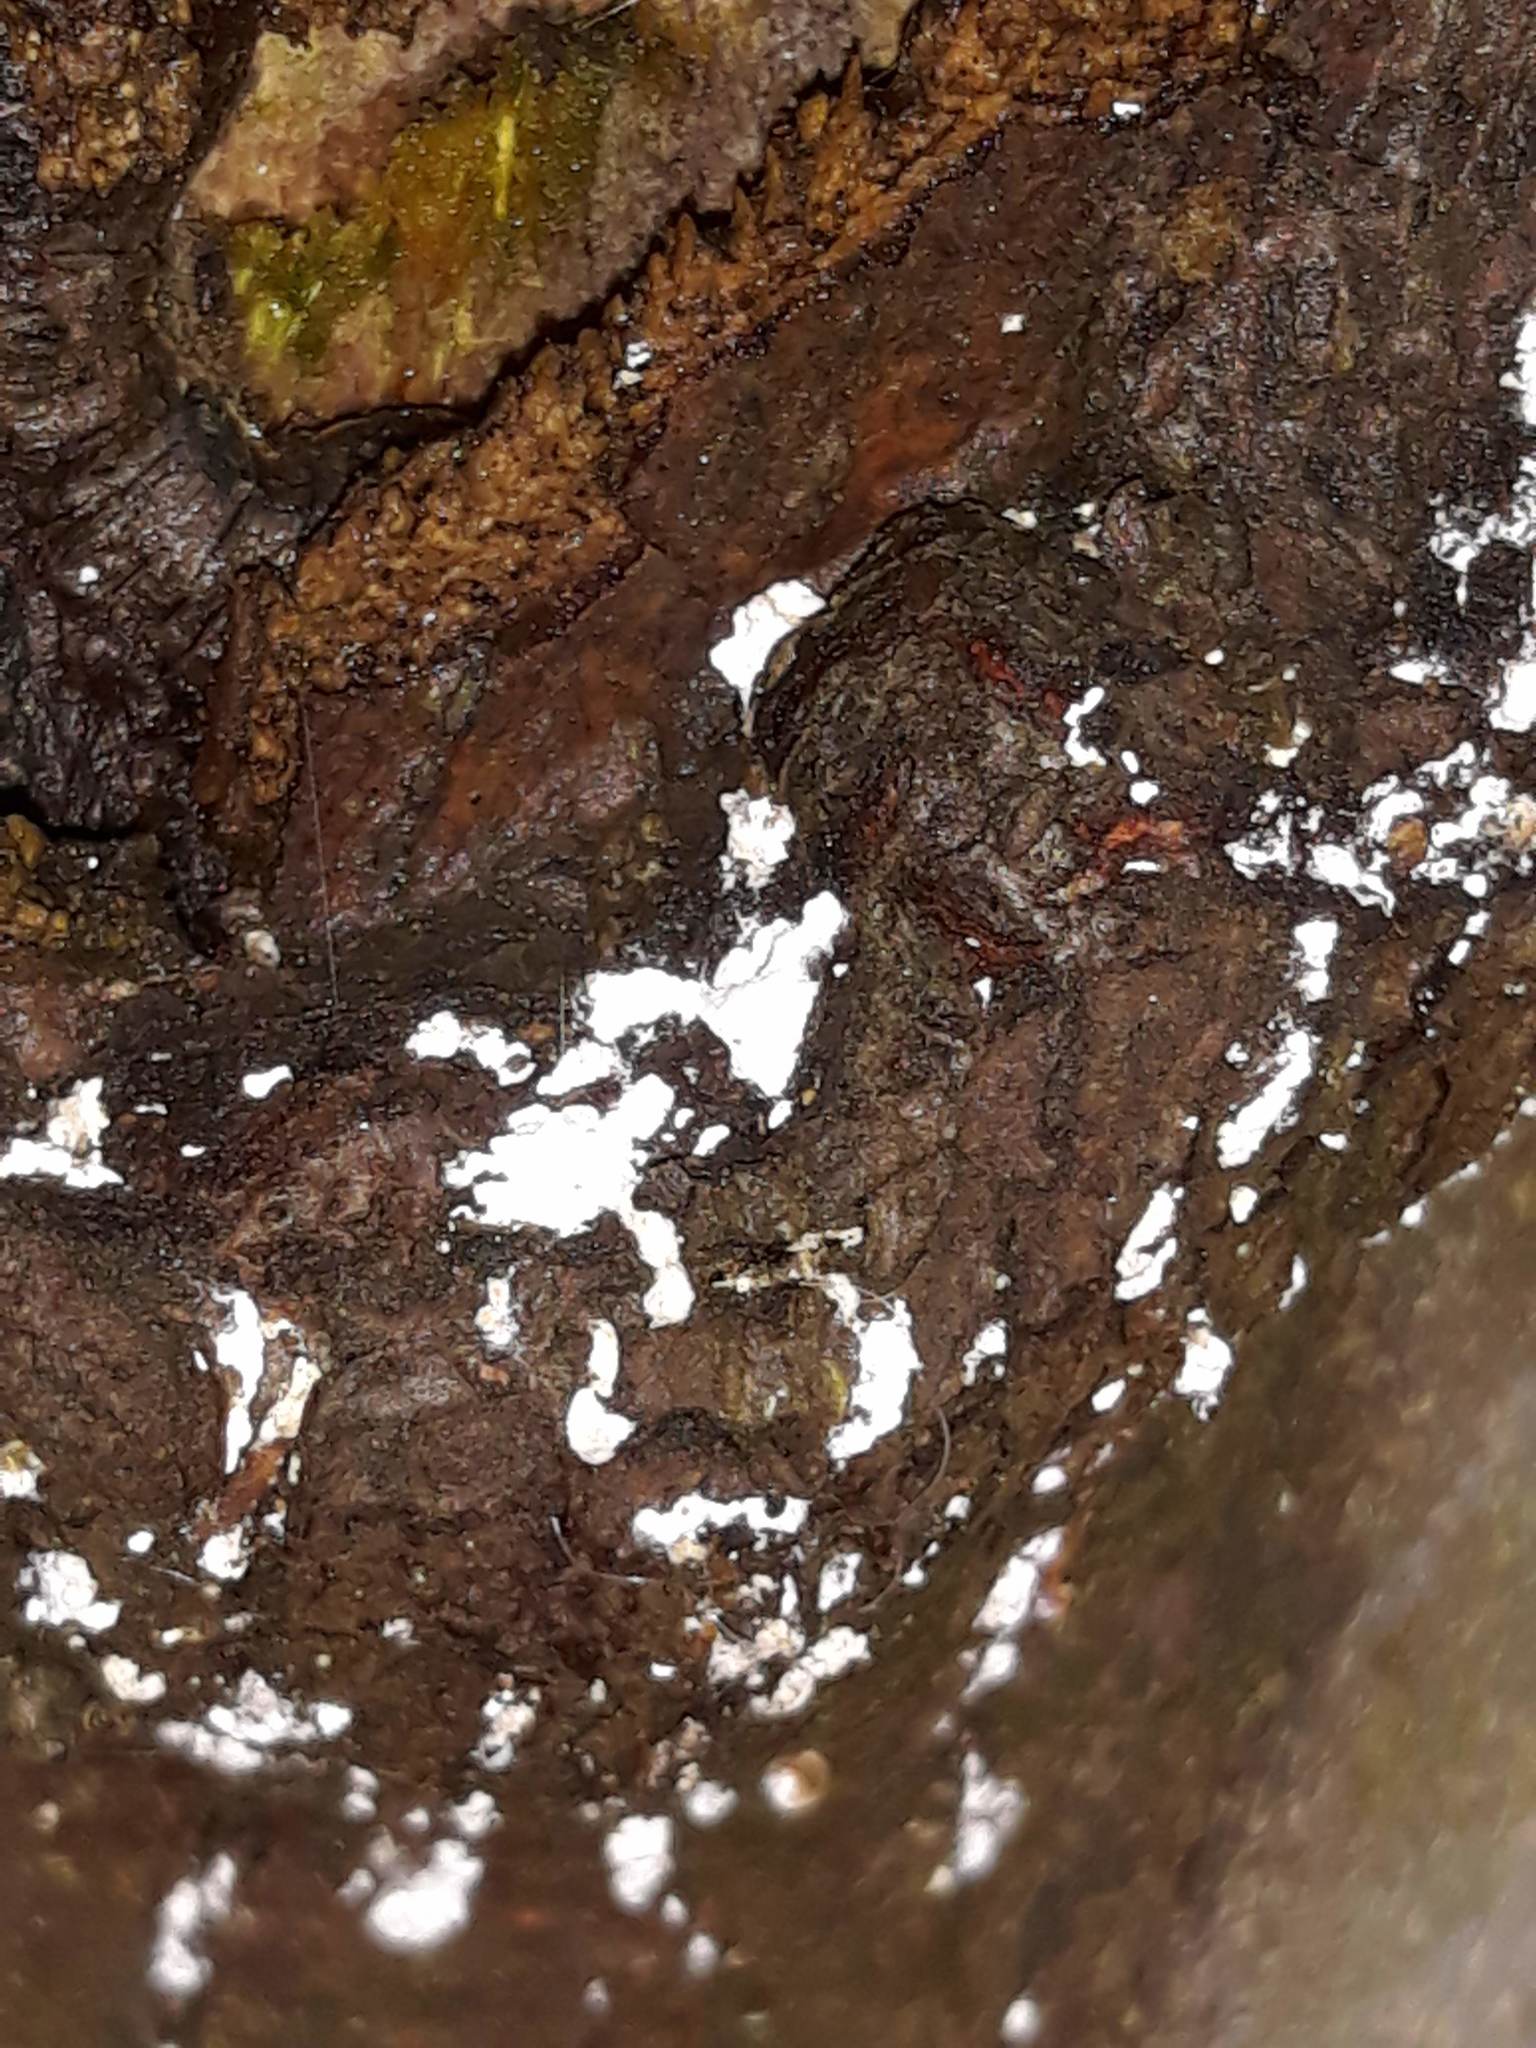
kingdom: Animalia
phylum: Arthropoda
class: Insecta
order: Hemiptera
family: Eriococcidae
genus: Cryptococcus
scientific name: Cryptococcus fagisuga
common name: Beech scale
